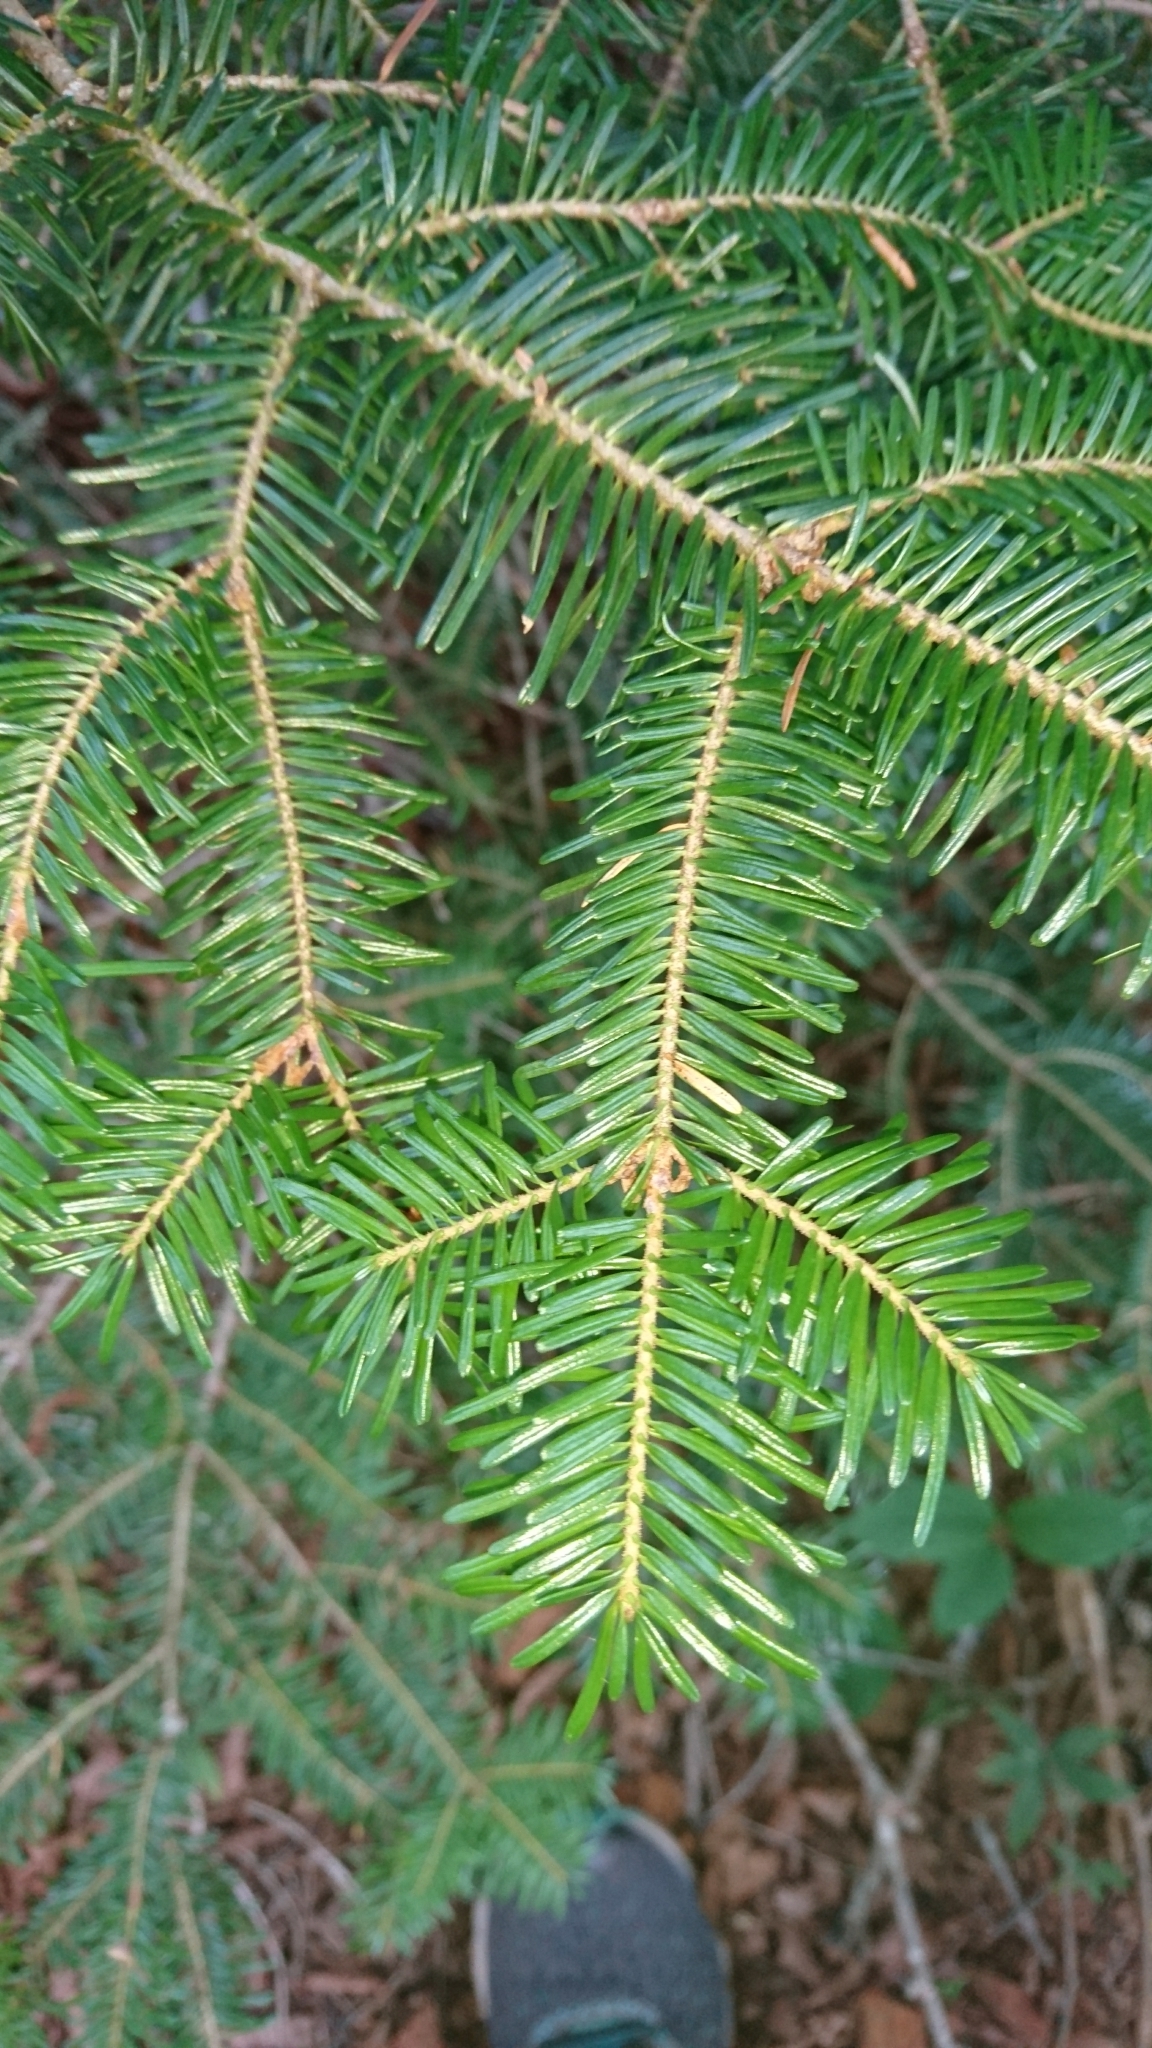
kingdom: Plantae
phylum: Tracheophyta
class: Pinopsida
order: Pinales
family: Pinaceae
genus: Abies
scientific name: Abies fraseri
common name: Fraser fir
